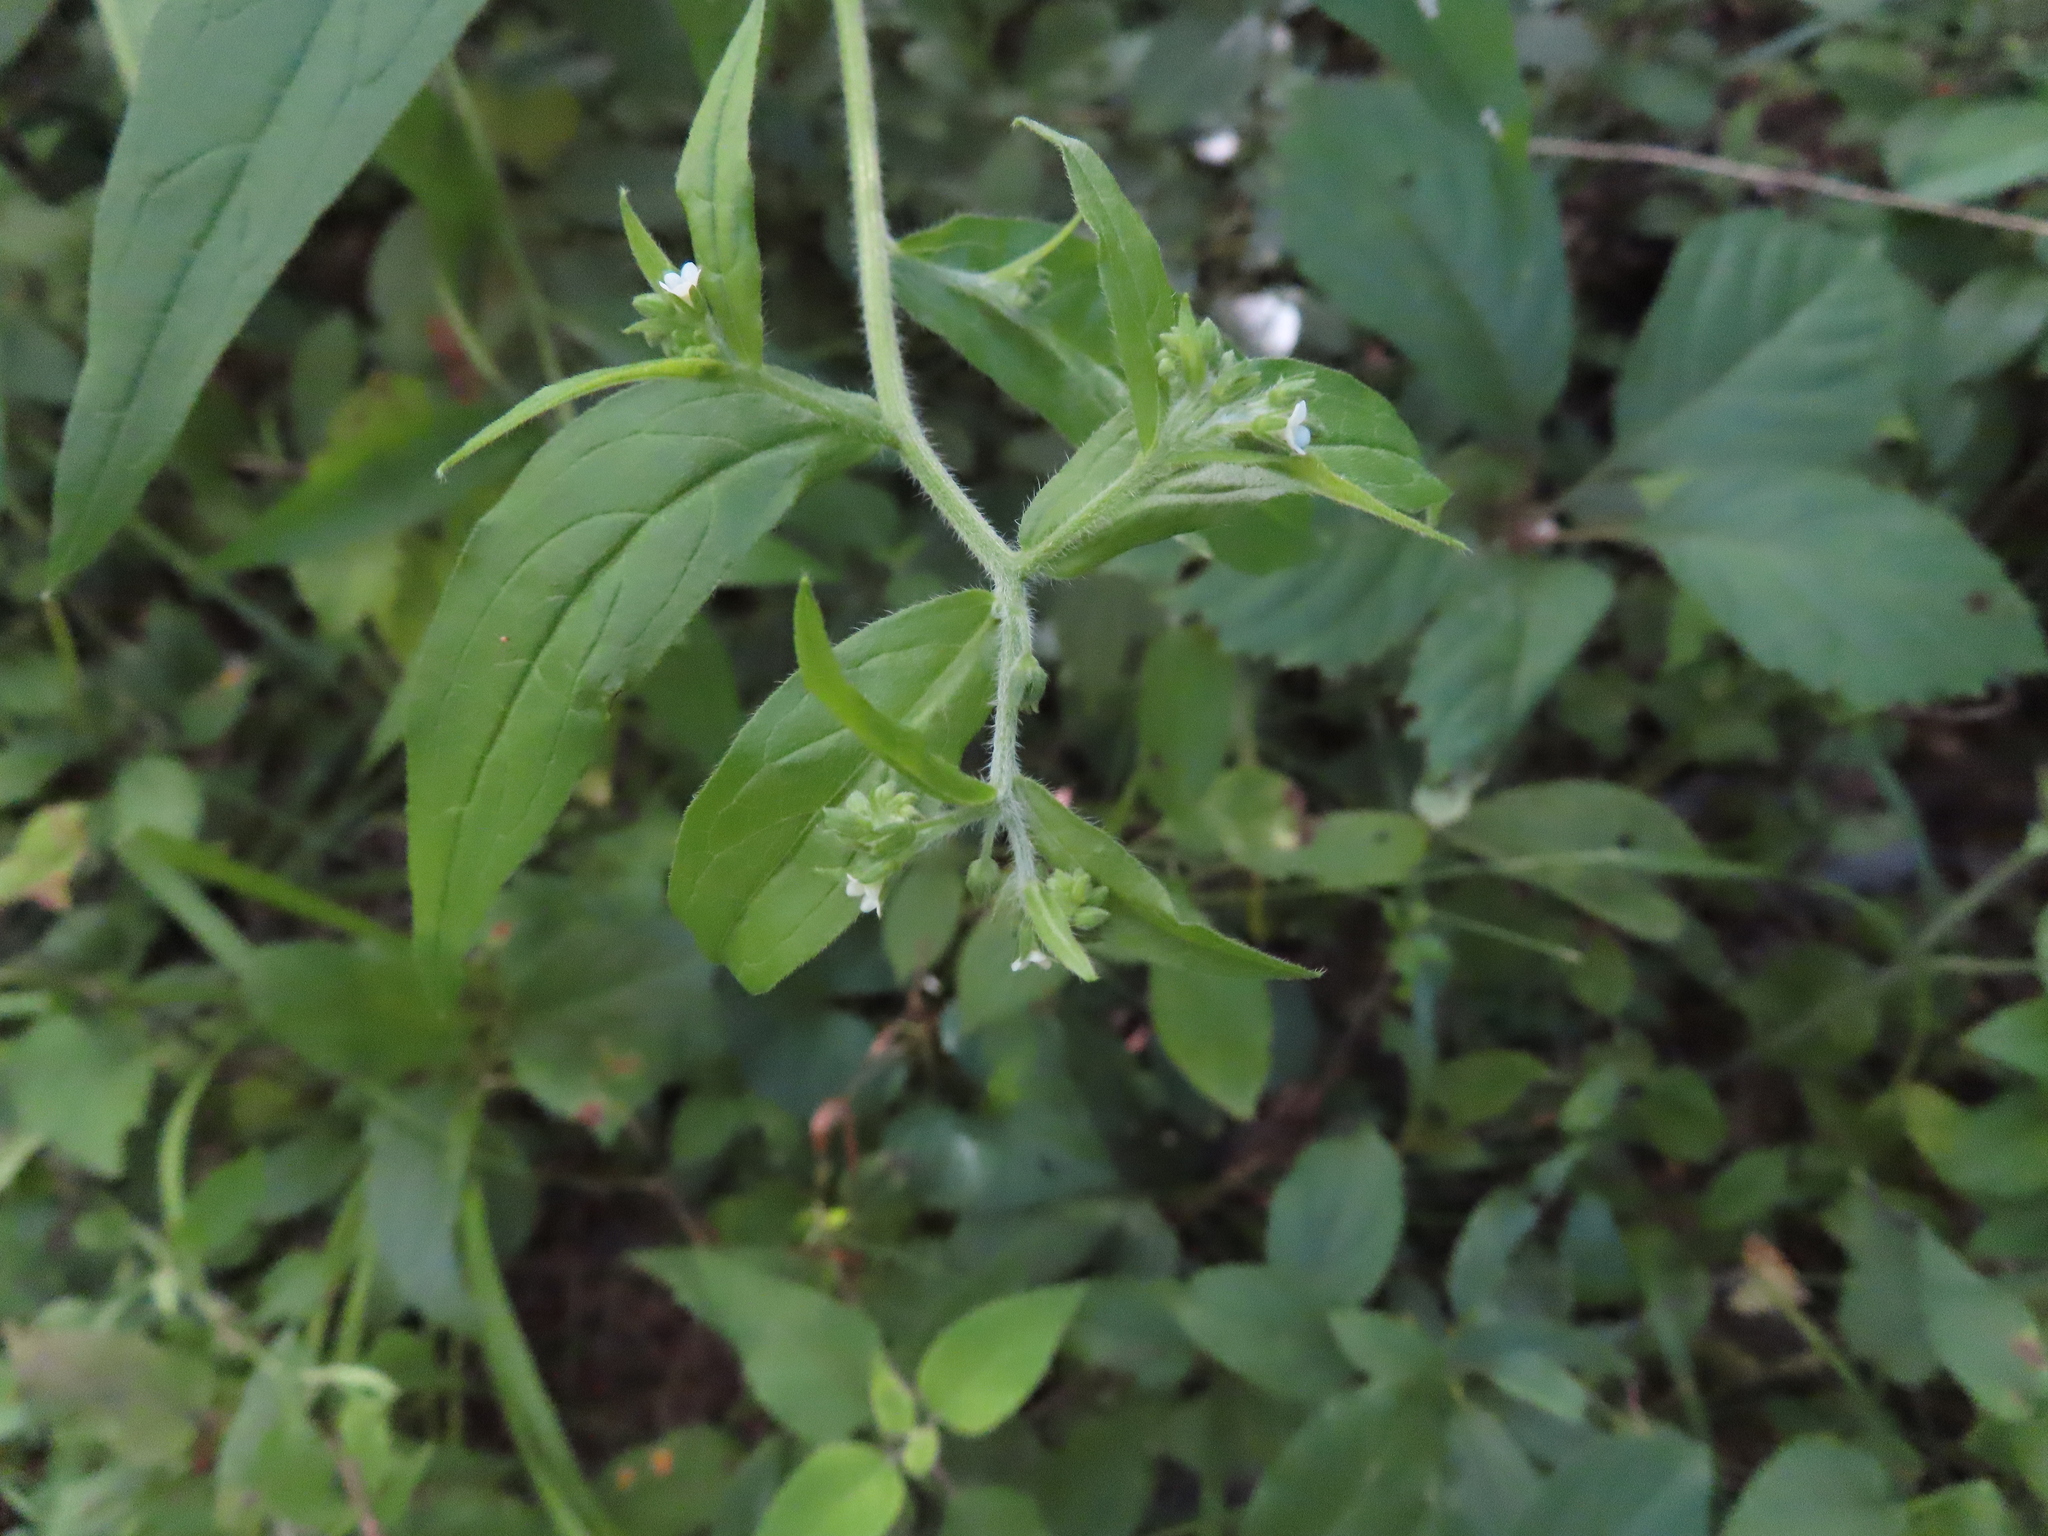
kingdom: Plantae
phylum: Tracheophyta
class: Magnoliopsida
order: Boraginales
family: Boraginaceae
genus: Hackelia
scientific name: Hackelia virginiana
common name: Beggar's-lice
